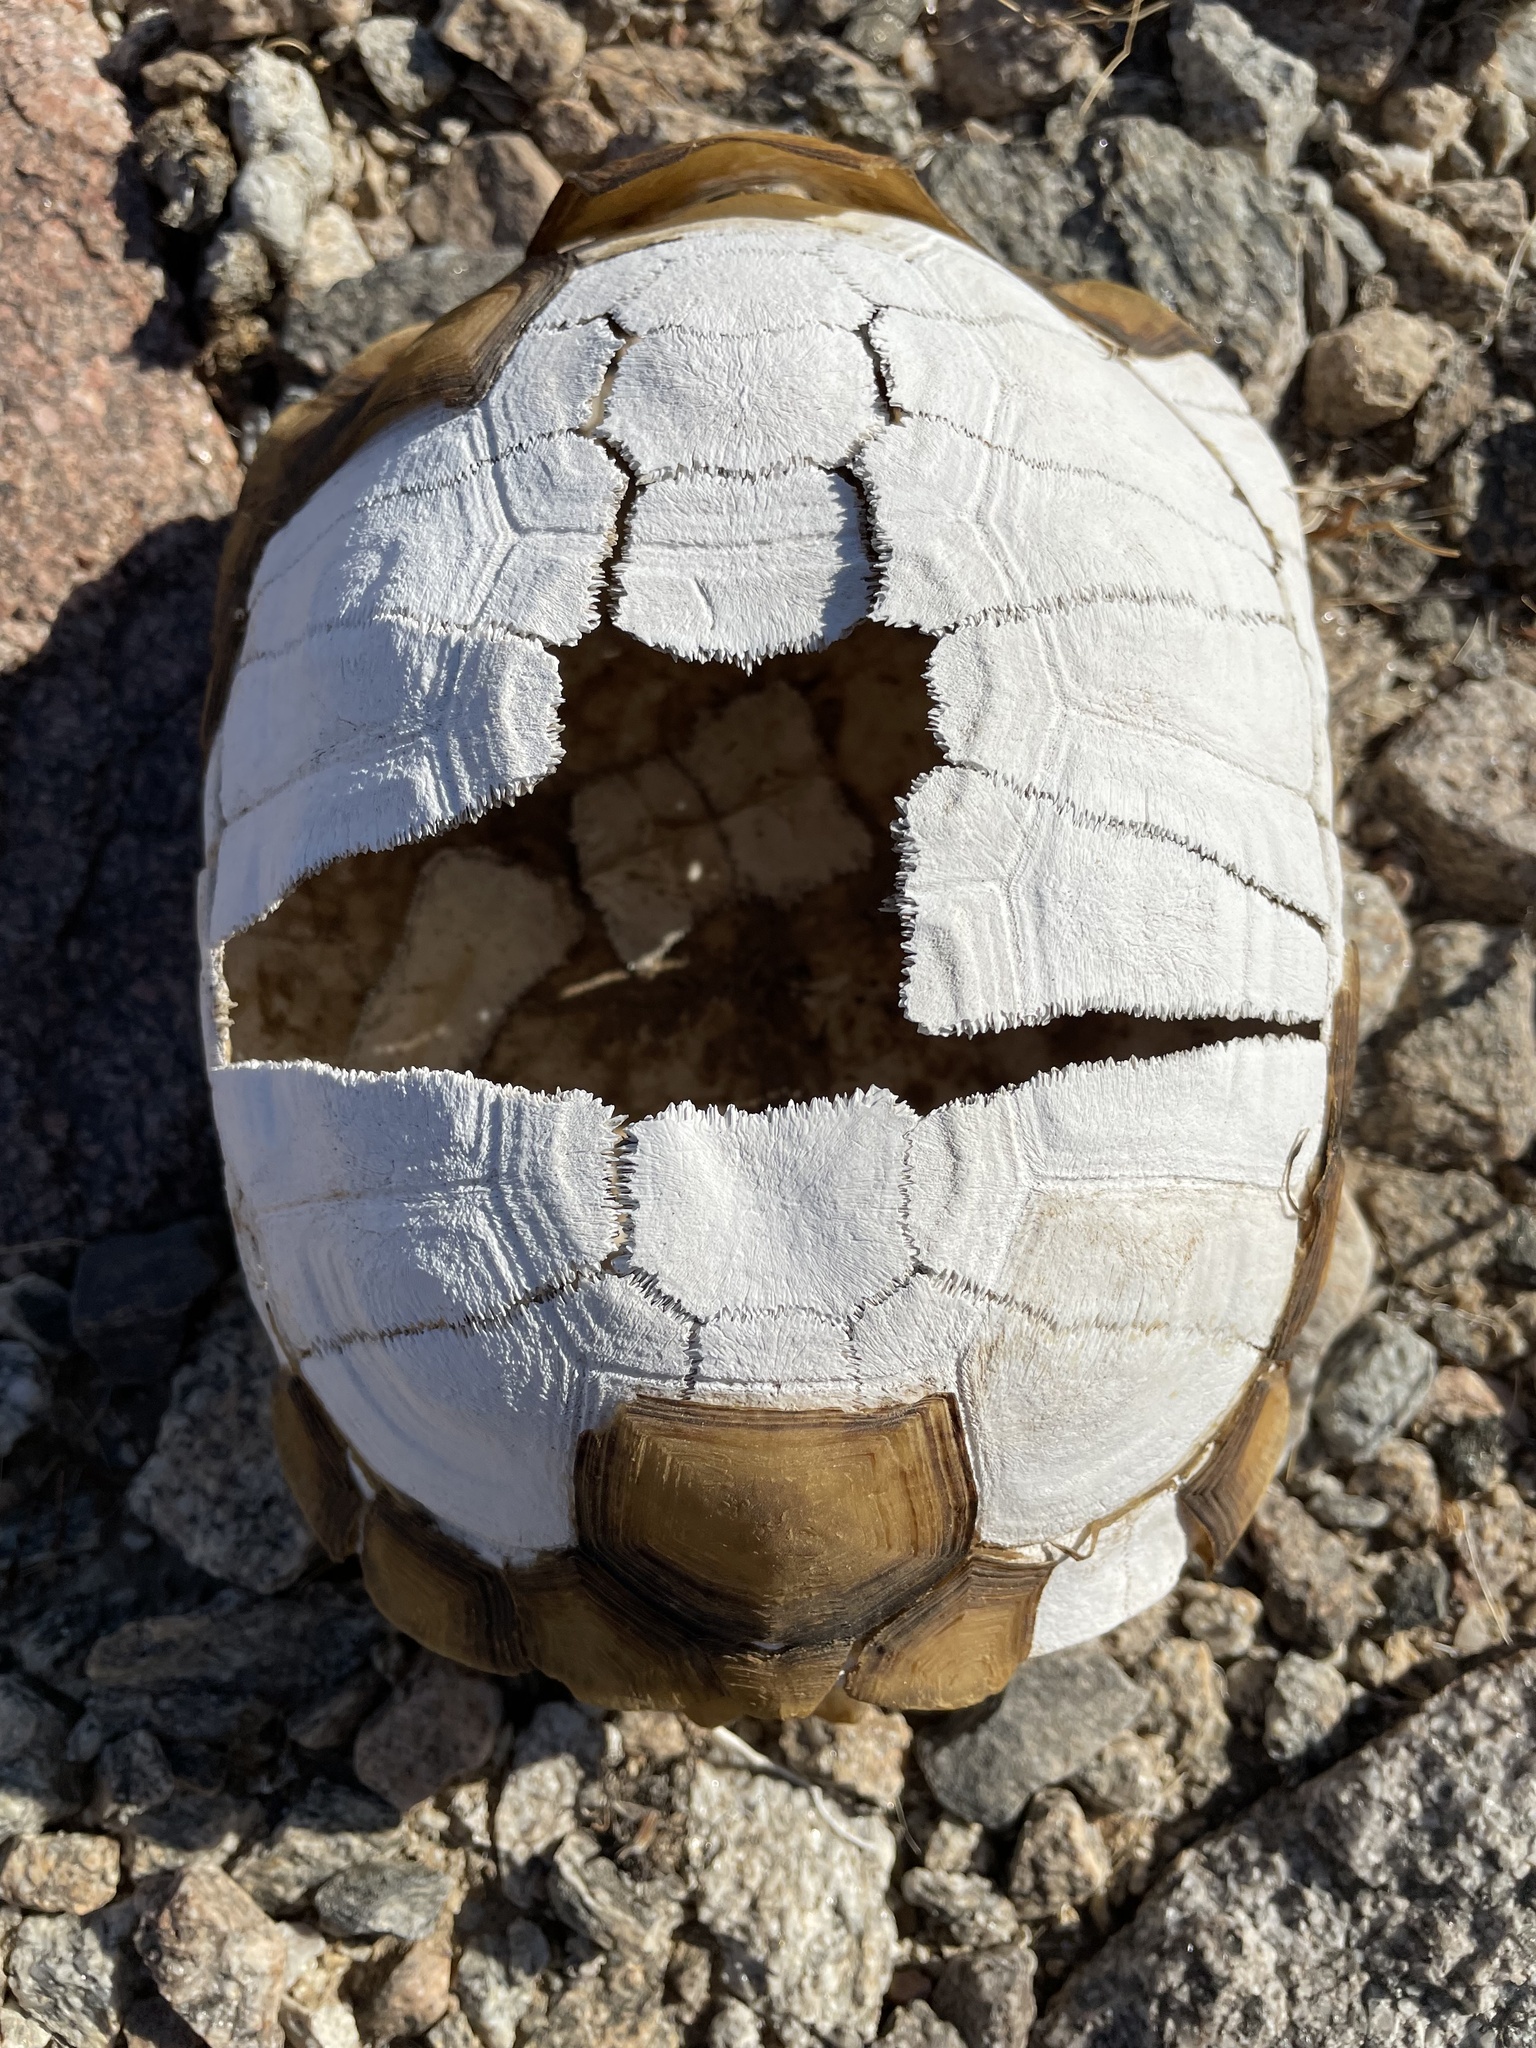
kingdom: Animalia
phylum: Chordata
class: Testudines
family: Testudinidae
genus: Gopherus
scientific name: Gopherus agassizii
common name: Mojave desert tortoise
